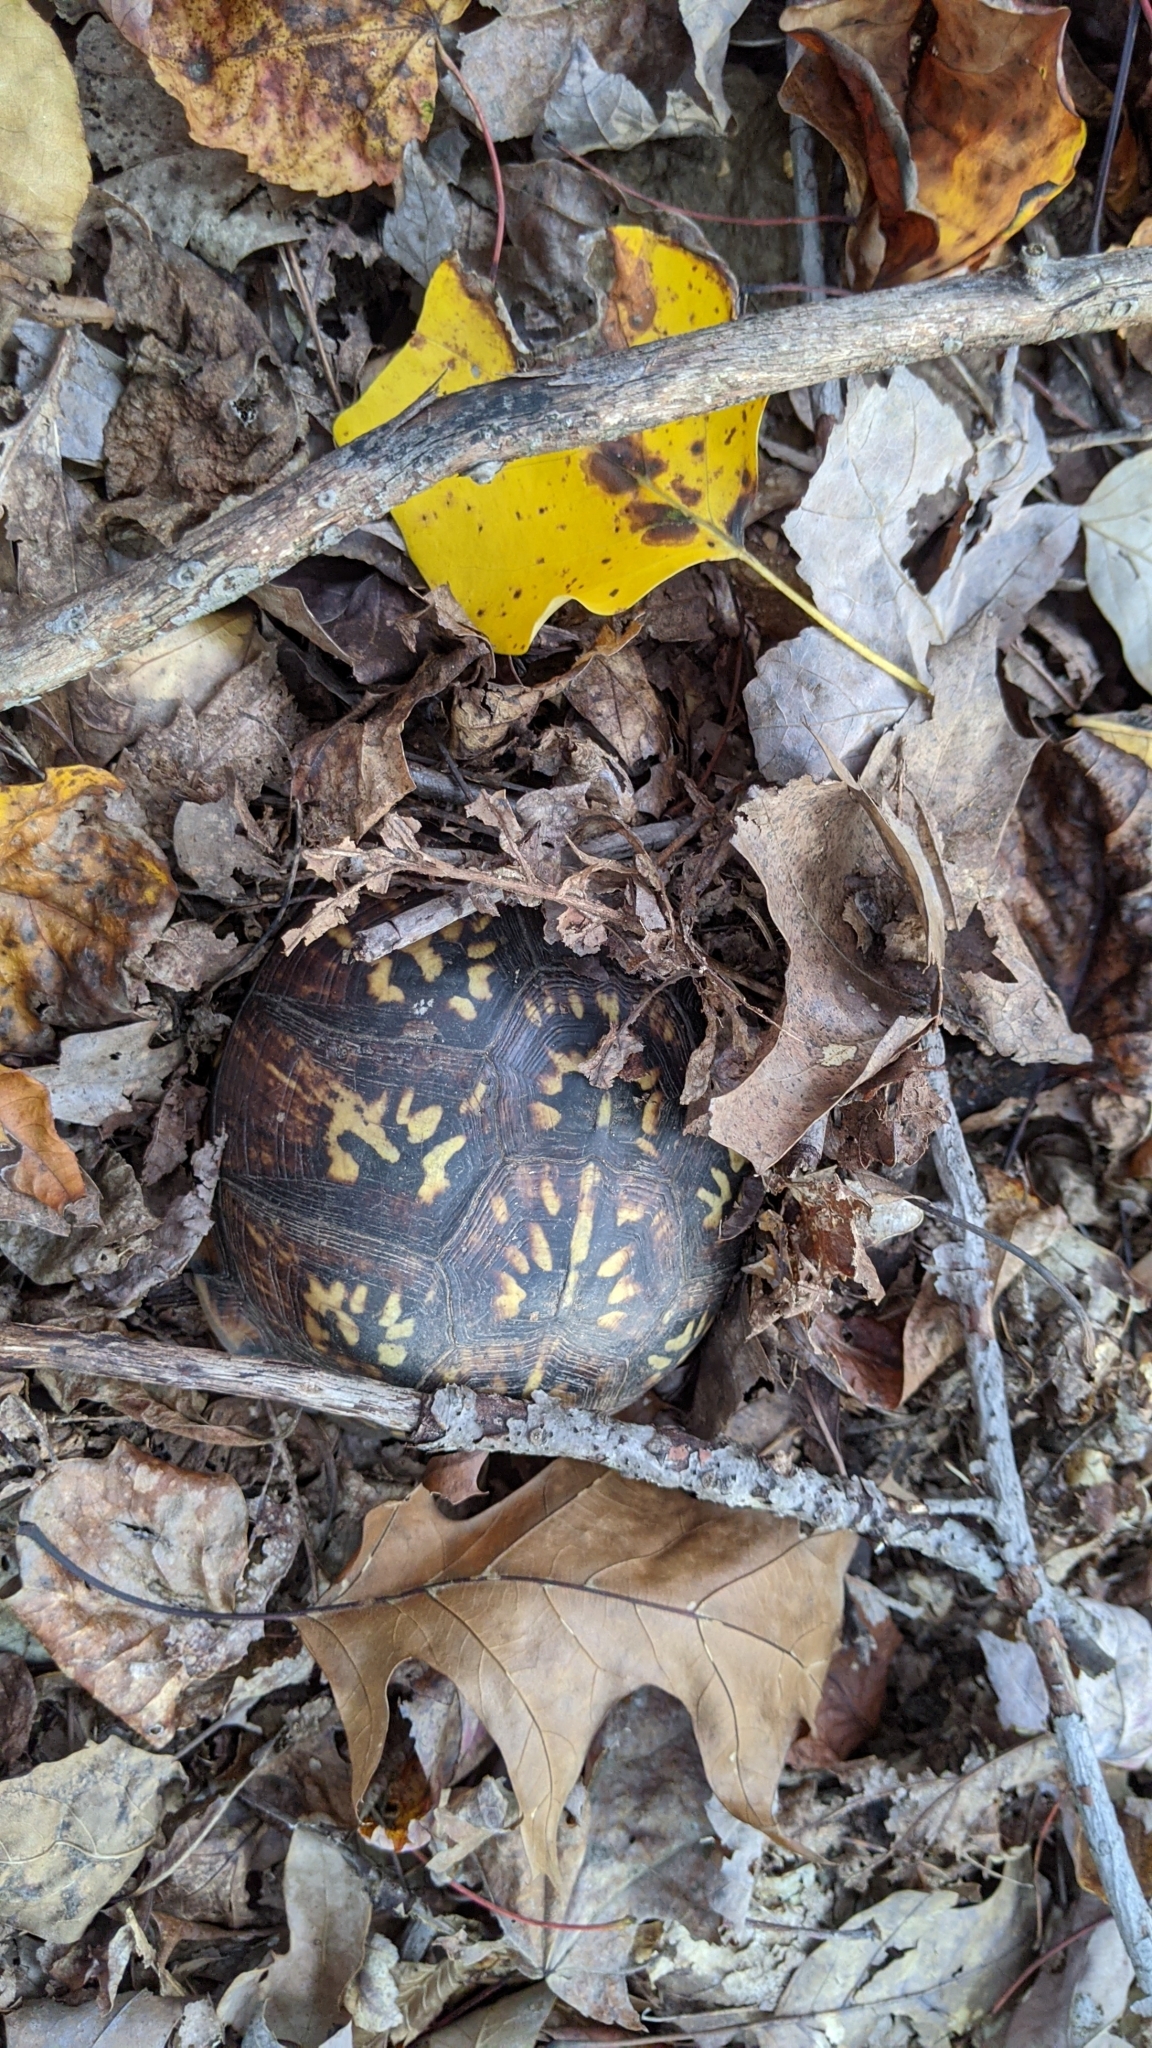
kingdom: Animalia
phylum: Chordata
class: Testudines
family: Emydidae
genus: Terrapene
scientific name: Terrapene carolina
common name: Common box turtle
